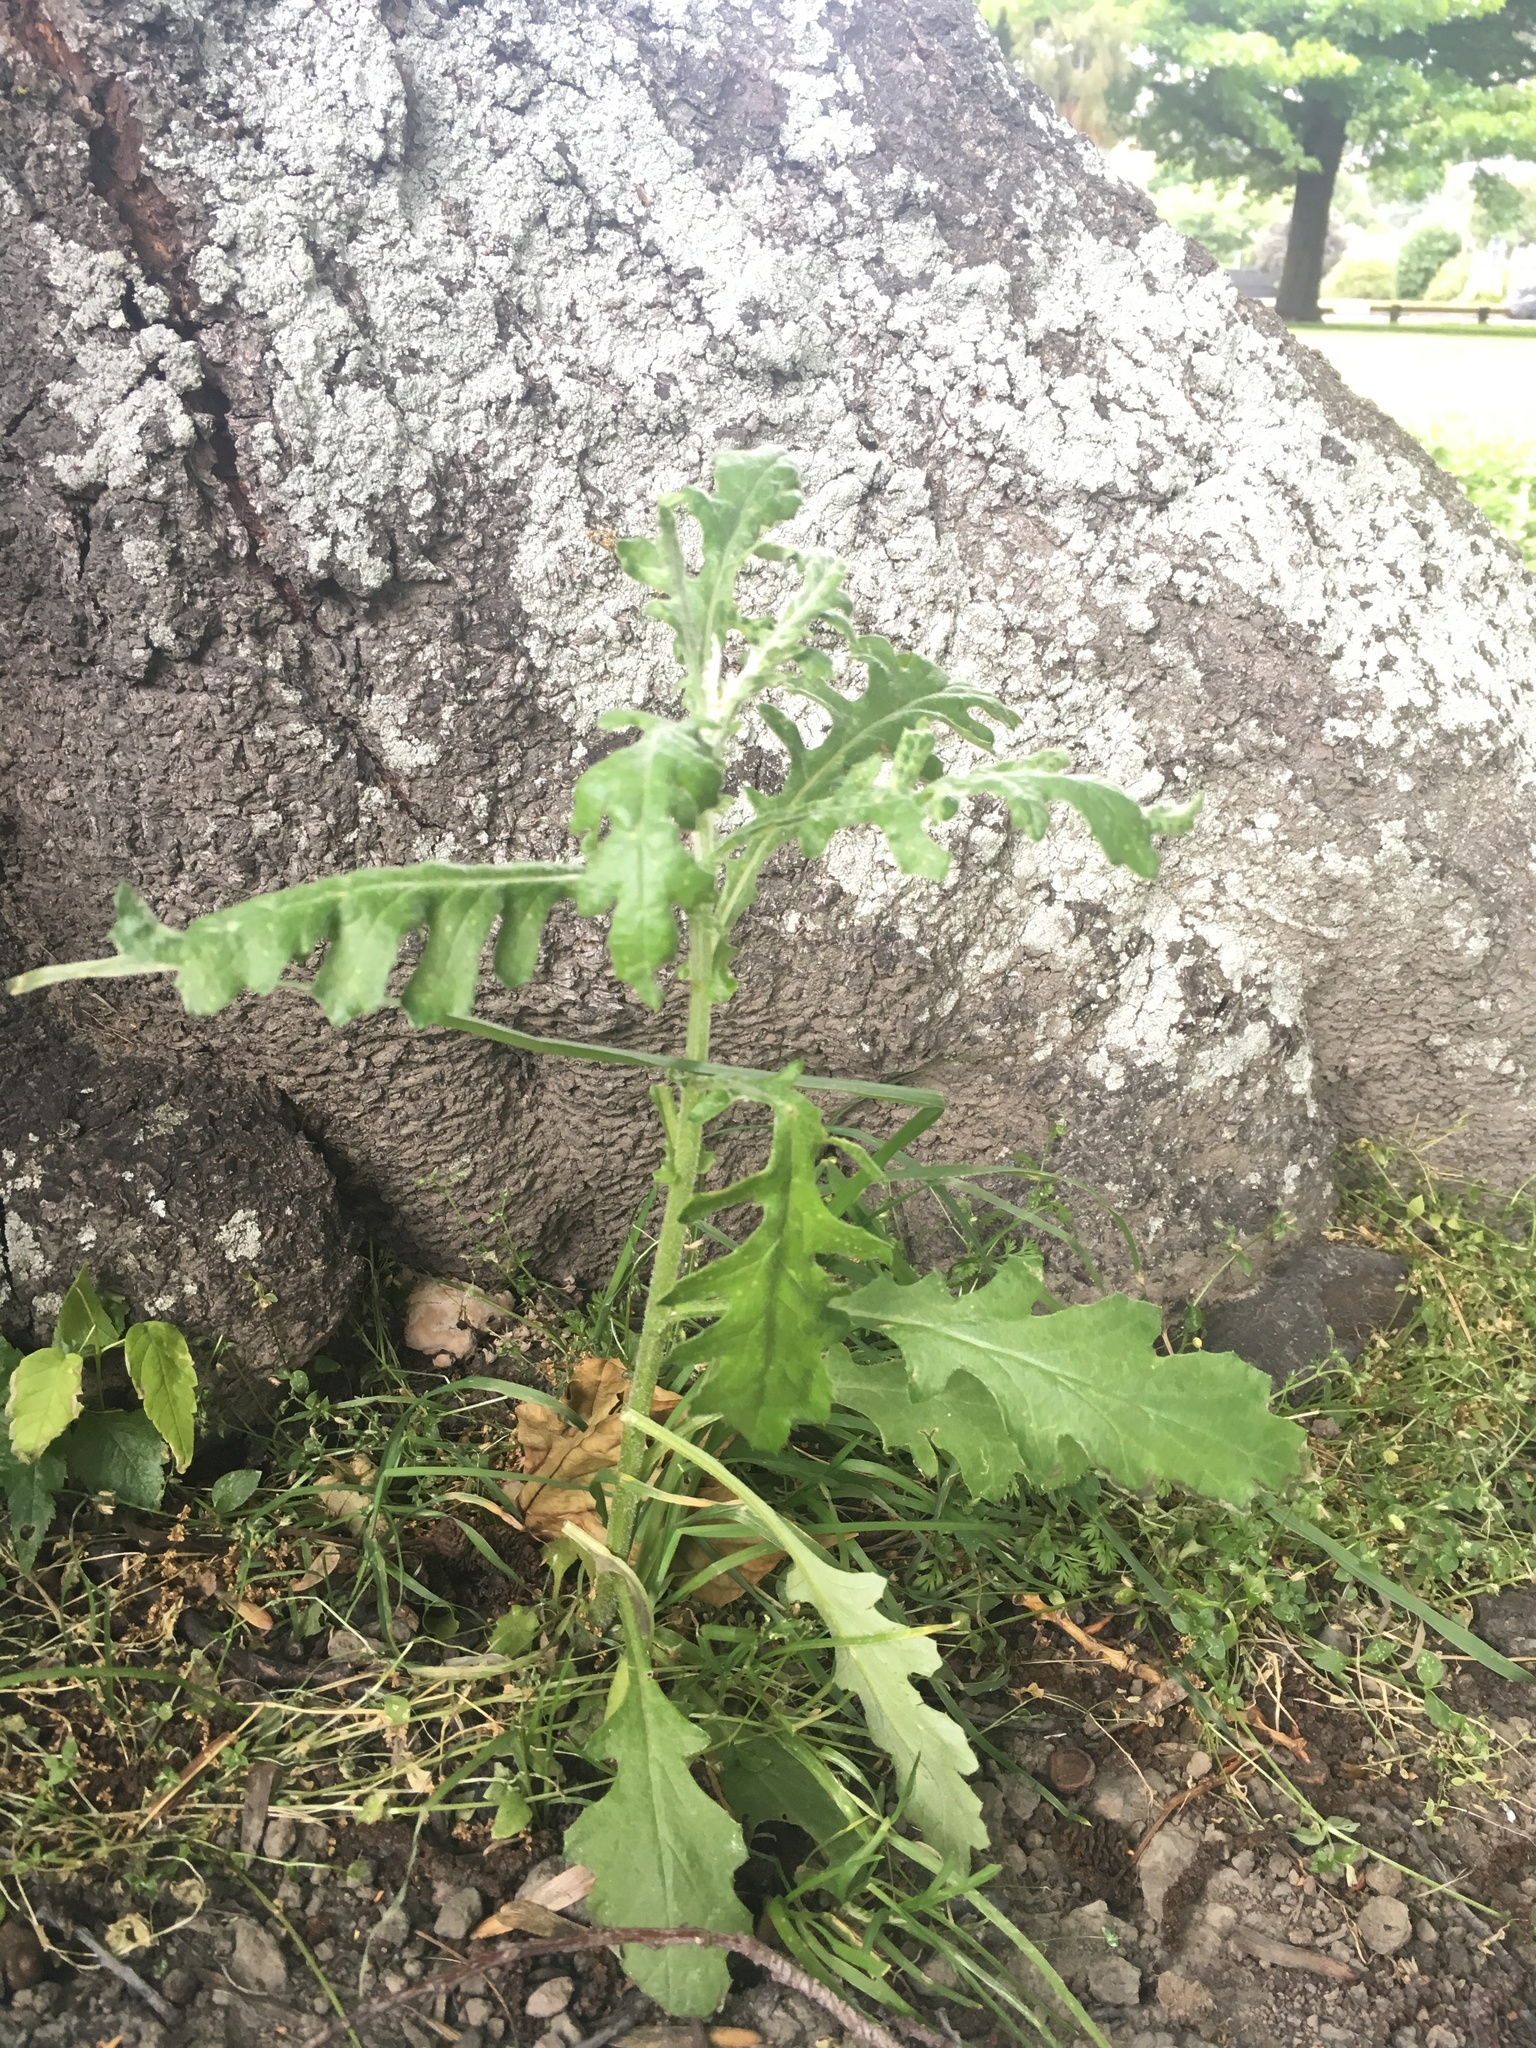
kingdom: Plantae
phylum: Tracheophyta
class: Magnoliopsida
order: Asterales
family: Asteraceae
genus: Senecio
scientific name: Senecio glomeratus
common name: Cutleaf burnweed
